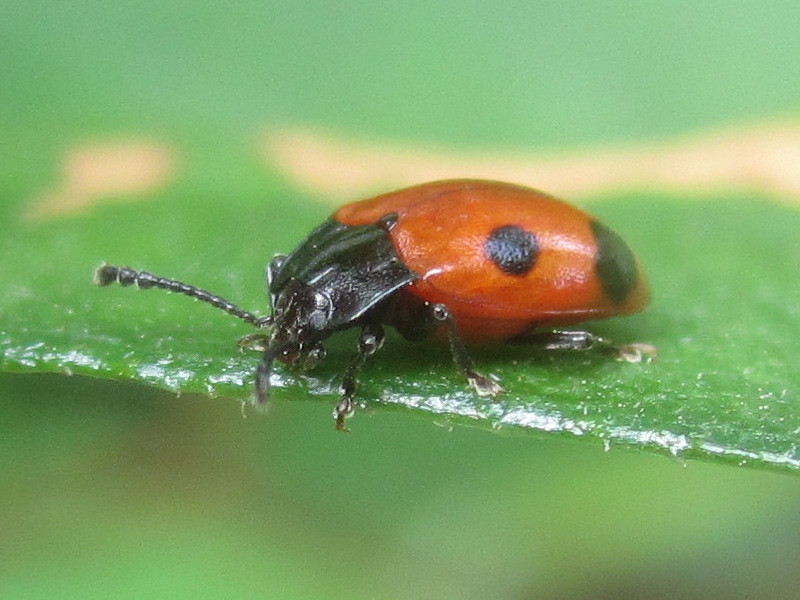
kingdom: Animalia
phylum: Arthropoda
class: Insecta
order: Coleoptera
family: Endomychidae
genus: Endomychus
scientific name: Endomychus biguttatus
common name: Handsome fungus beetle
